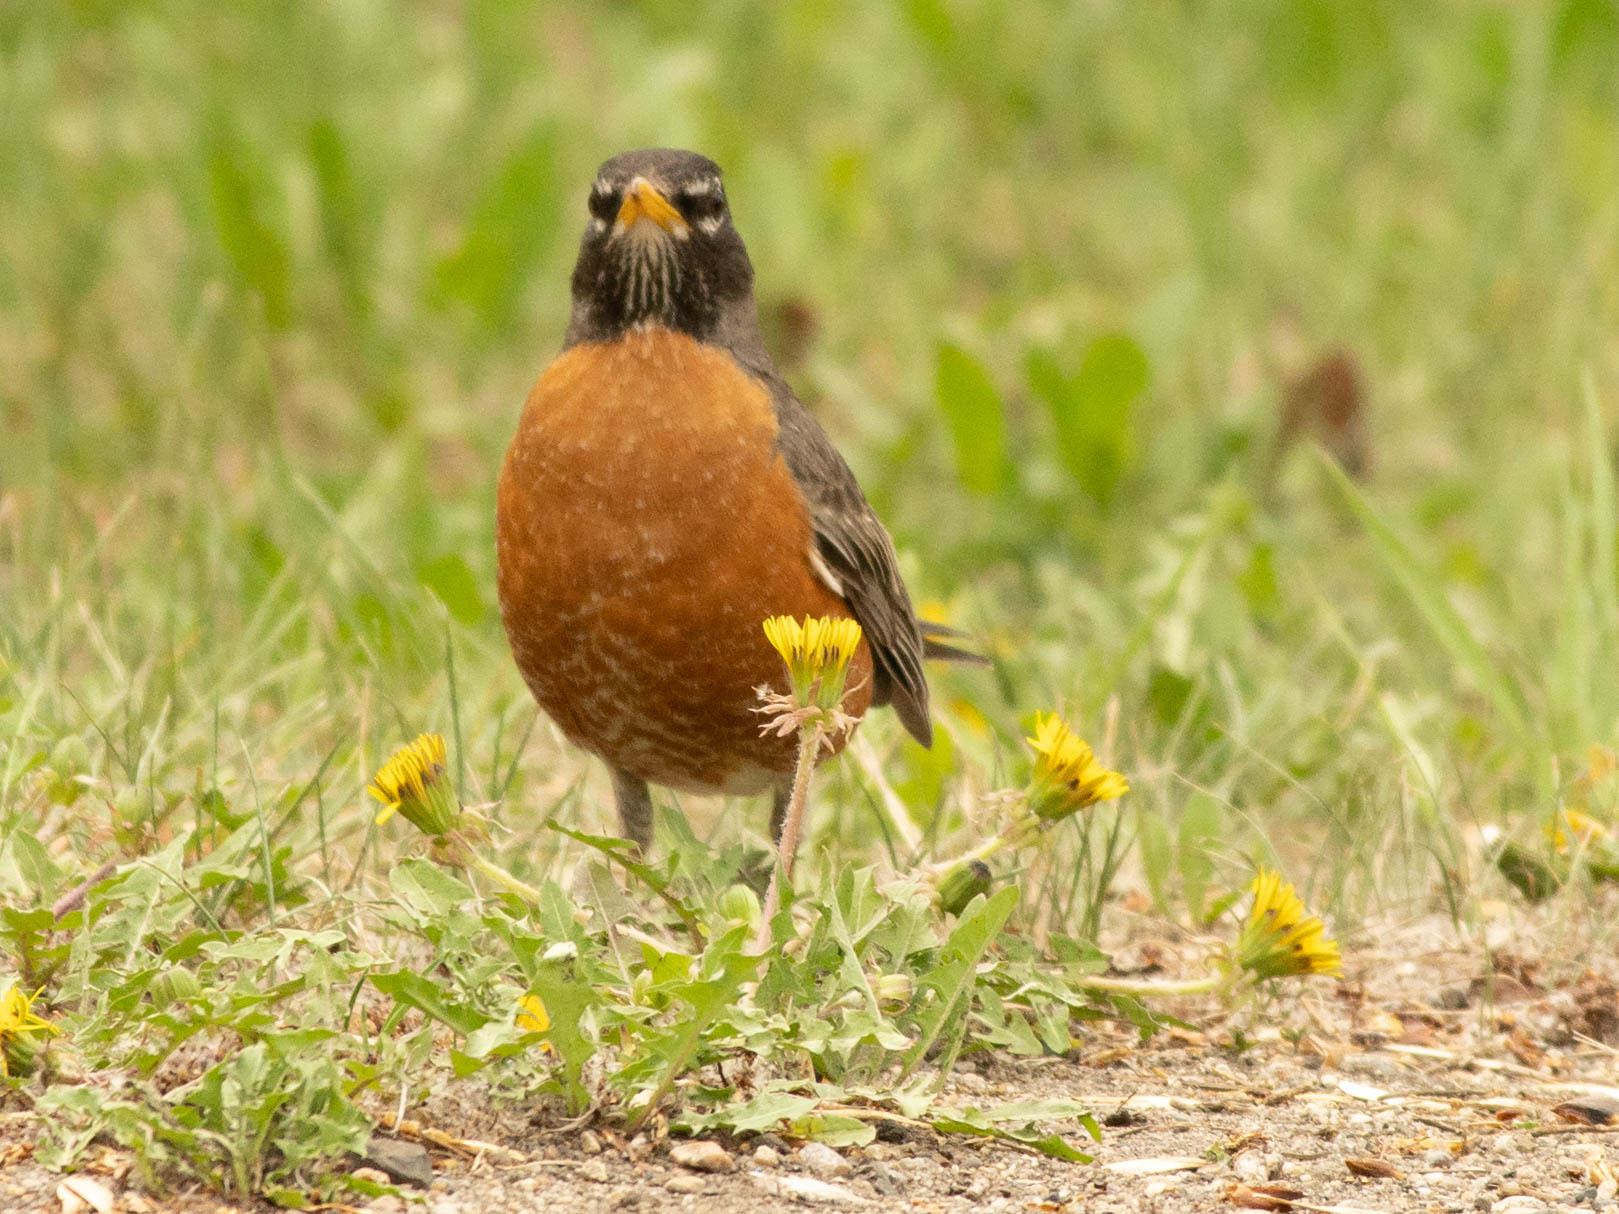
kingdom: Animalia
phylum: Chordata
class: Aves
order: Passeriformes
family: Turdidae
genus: Turdus
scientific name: Turdus migratorius
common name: American robin
